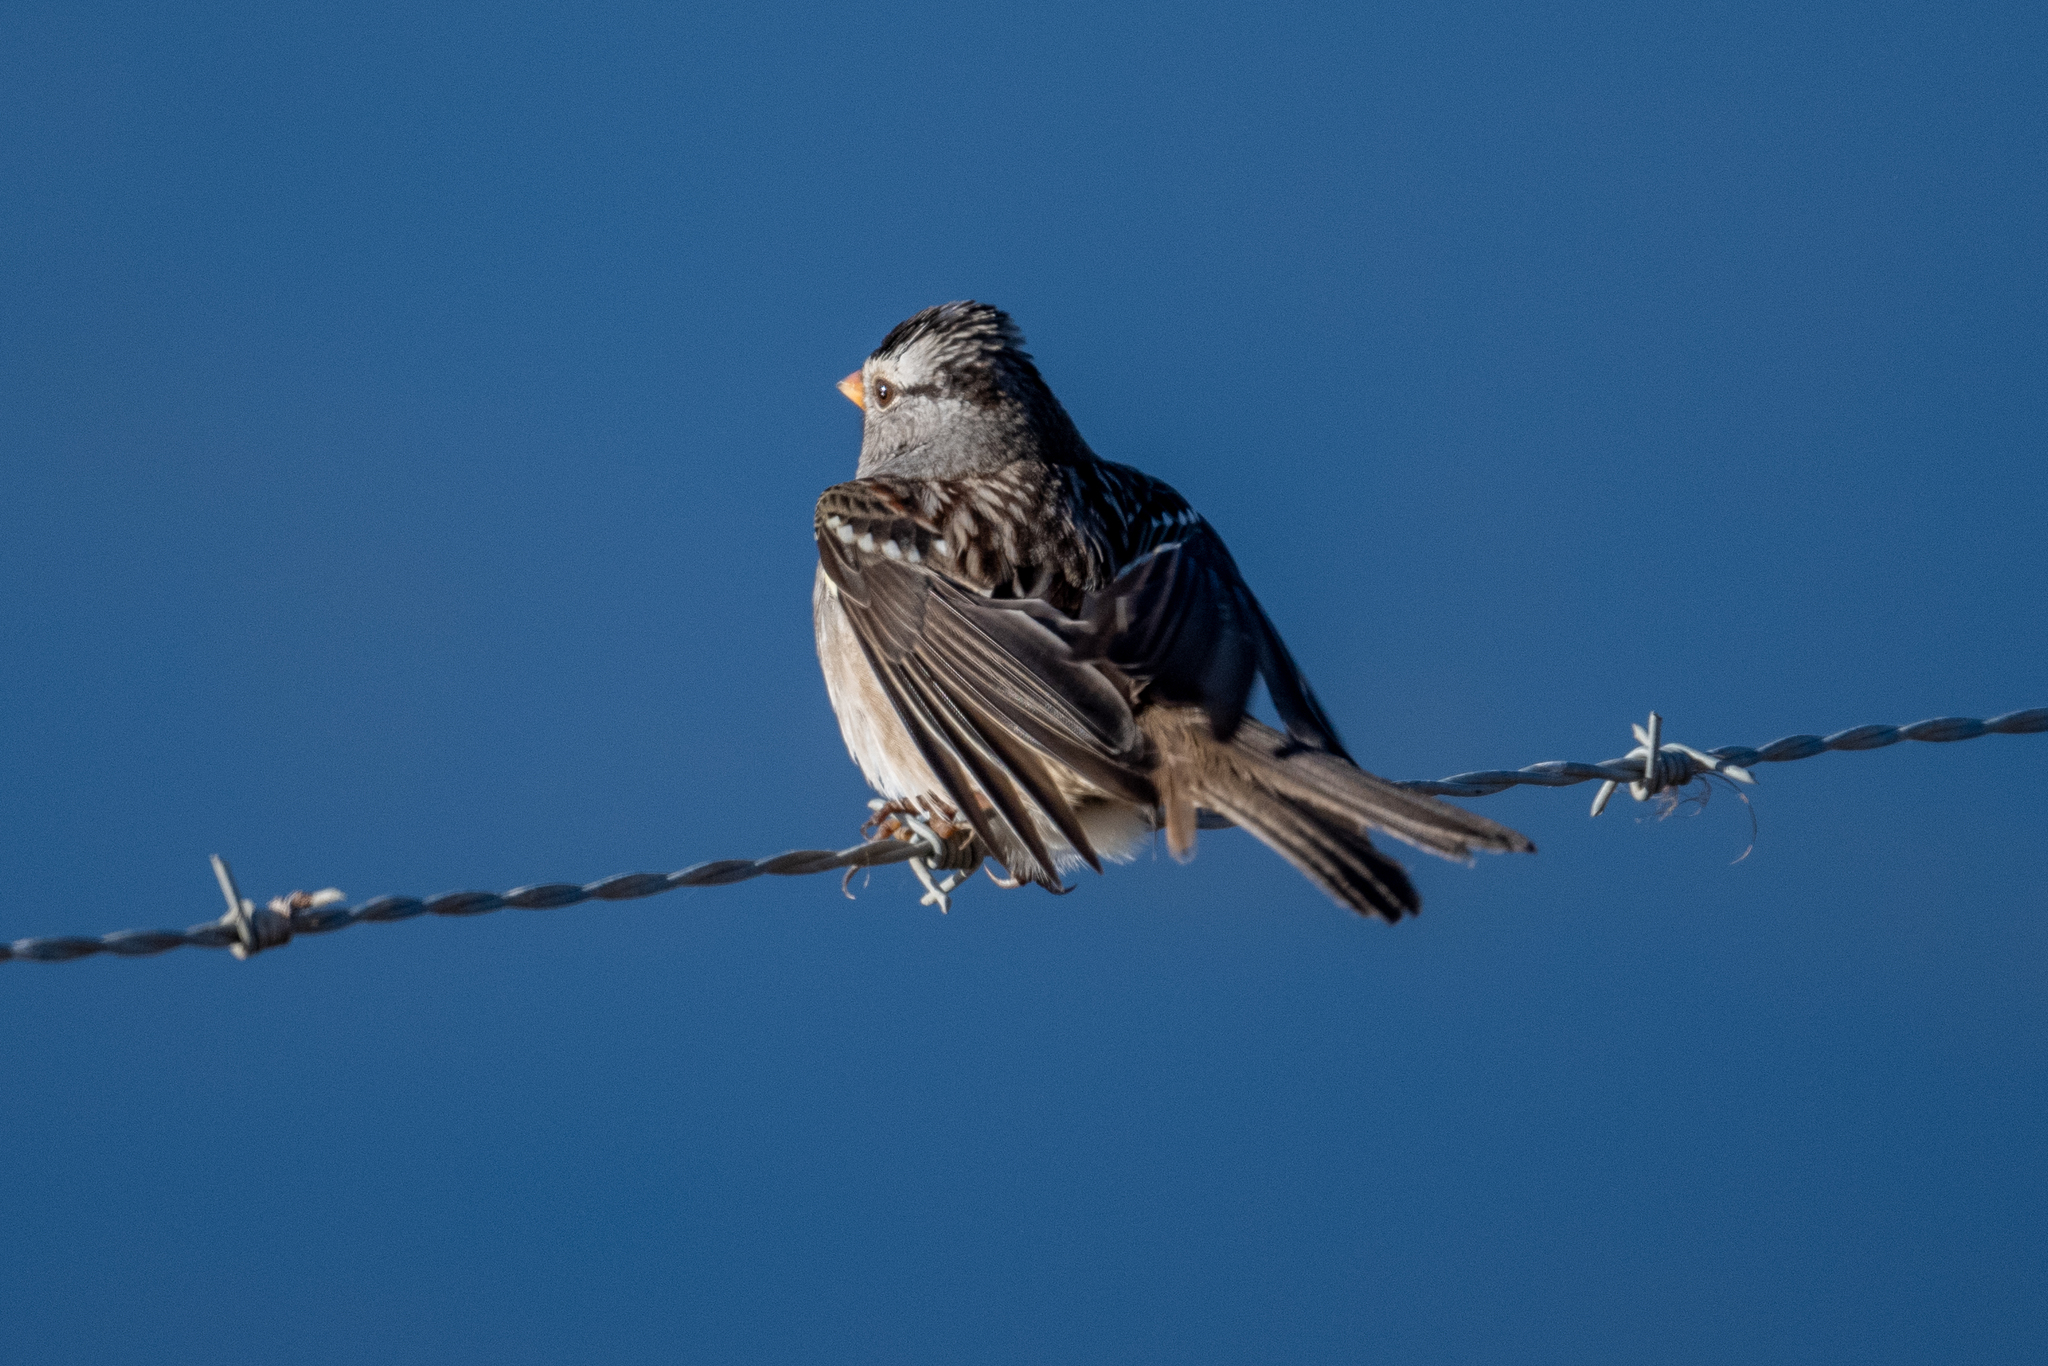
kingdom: Animalia
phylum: Chordata
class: Aves
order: Passeriformes
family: Passerellidae
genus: Zonotrichia
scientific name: Zonotrichia leucophrys
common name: White-crowned sparrow
